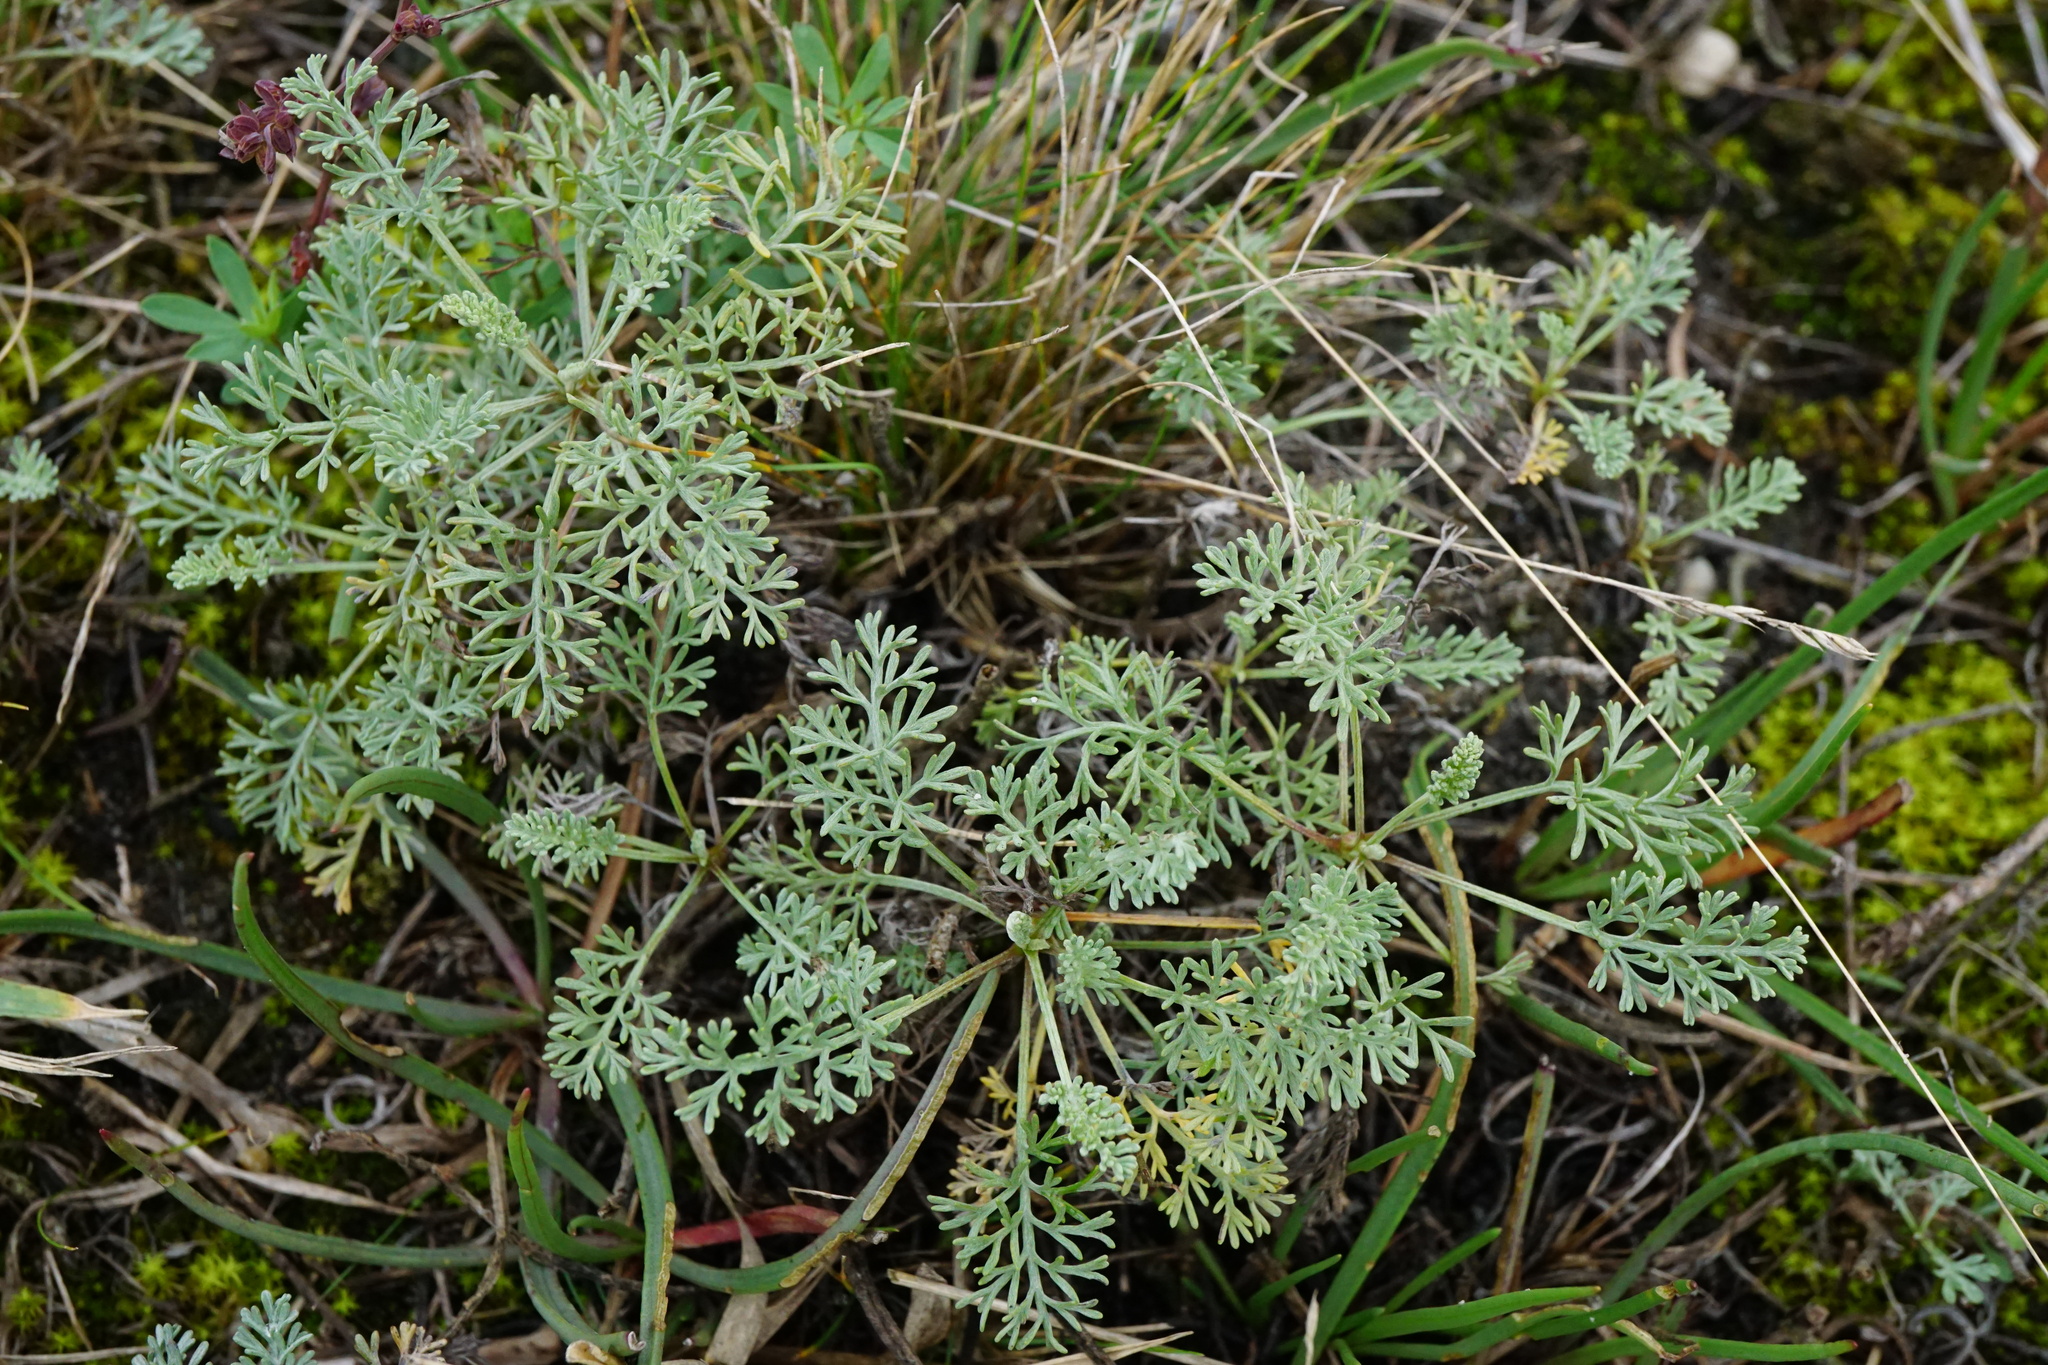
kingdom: Plantae
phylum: Tracheophyta
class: Magnoliopsida
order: Asterales
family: Asteraceae
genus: Artemisia
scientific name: Artemisia santonicum
